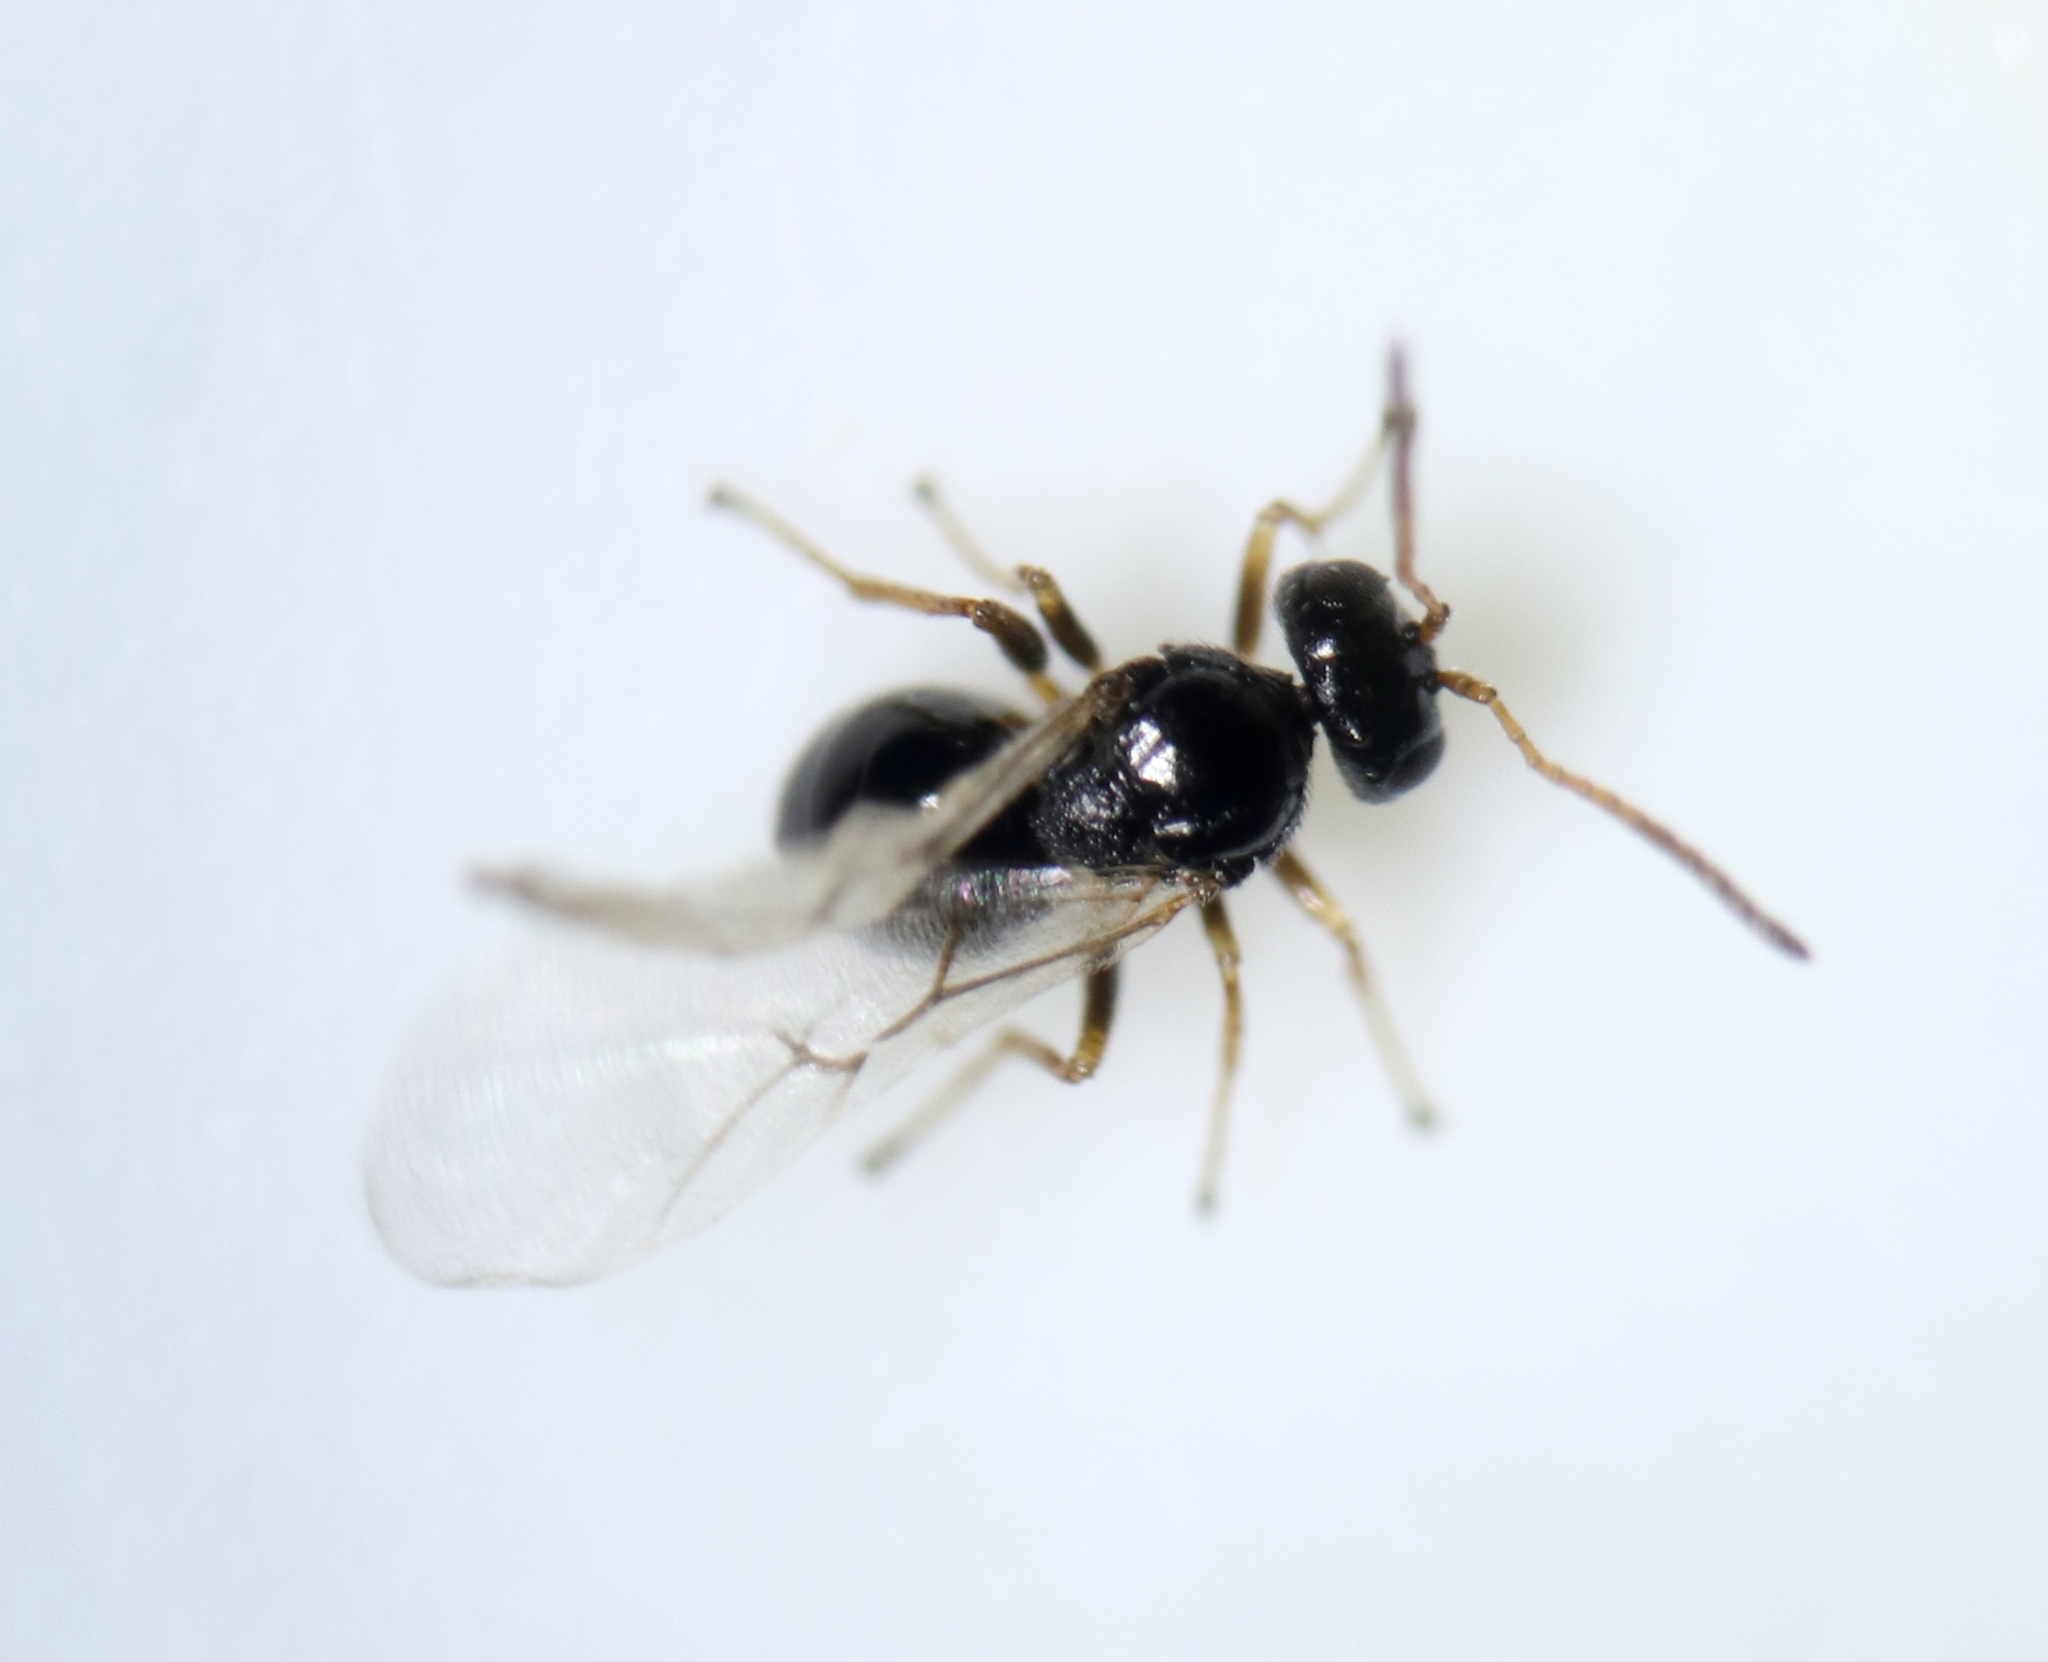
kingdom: Animalia
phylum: Arthropoda
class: Insecta
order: Hymenoptera
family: Cynipidae
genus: Neuroterus
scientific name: Neuroterus
